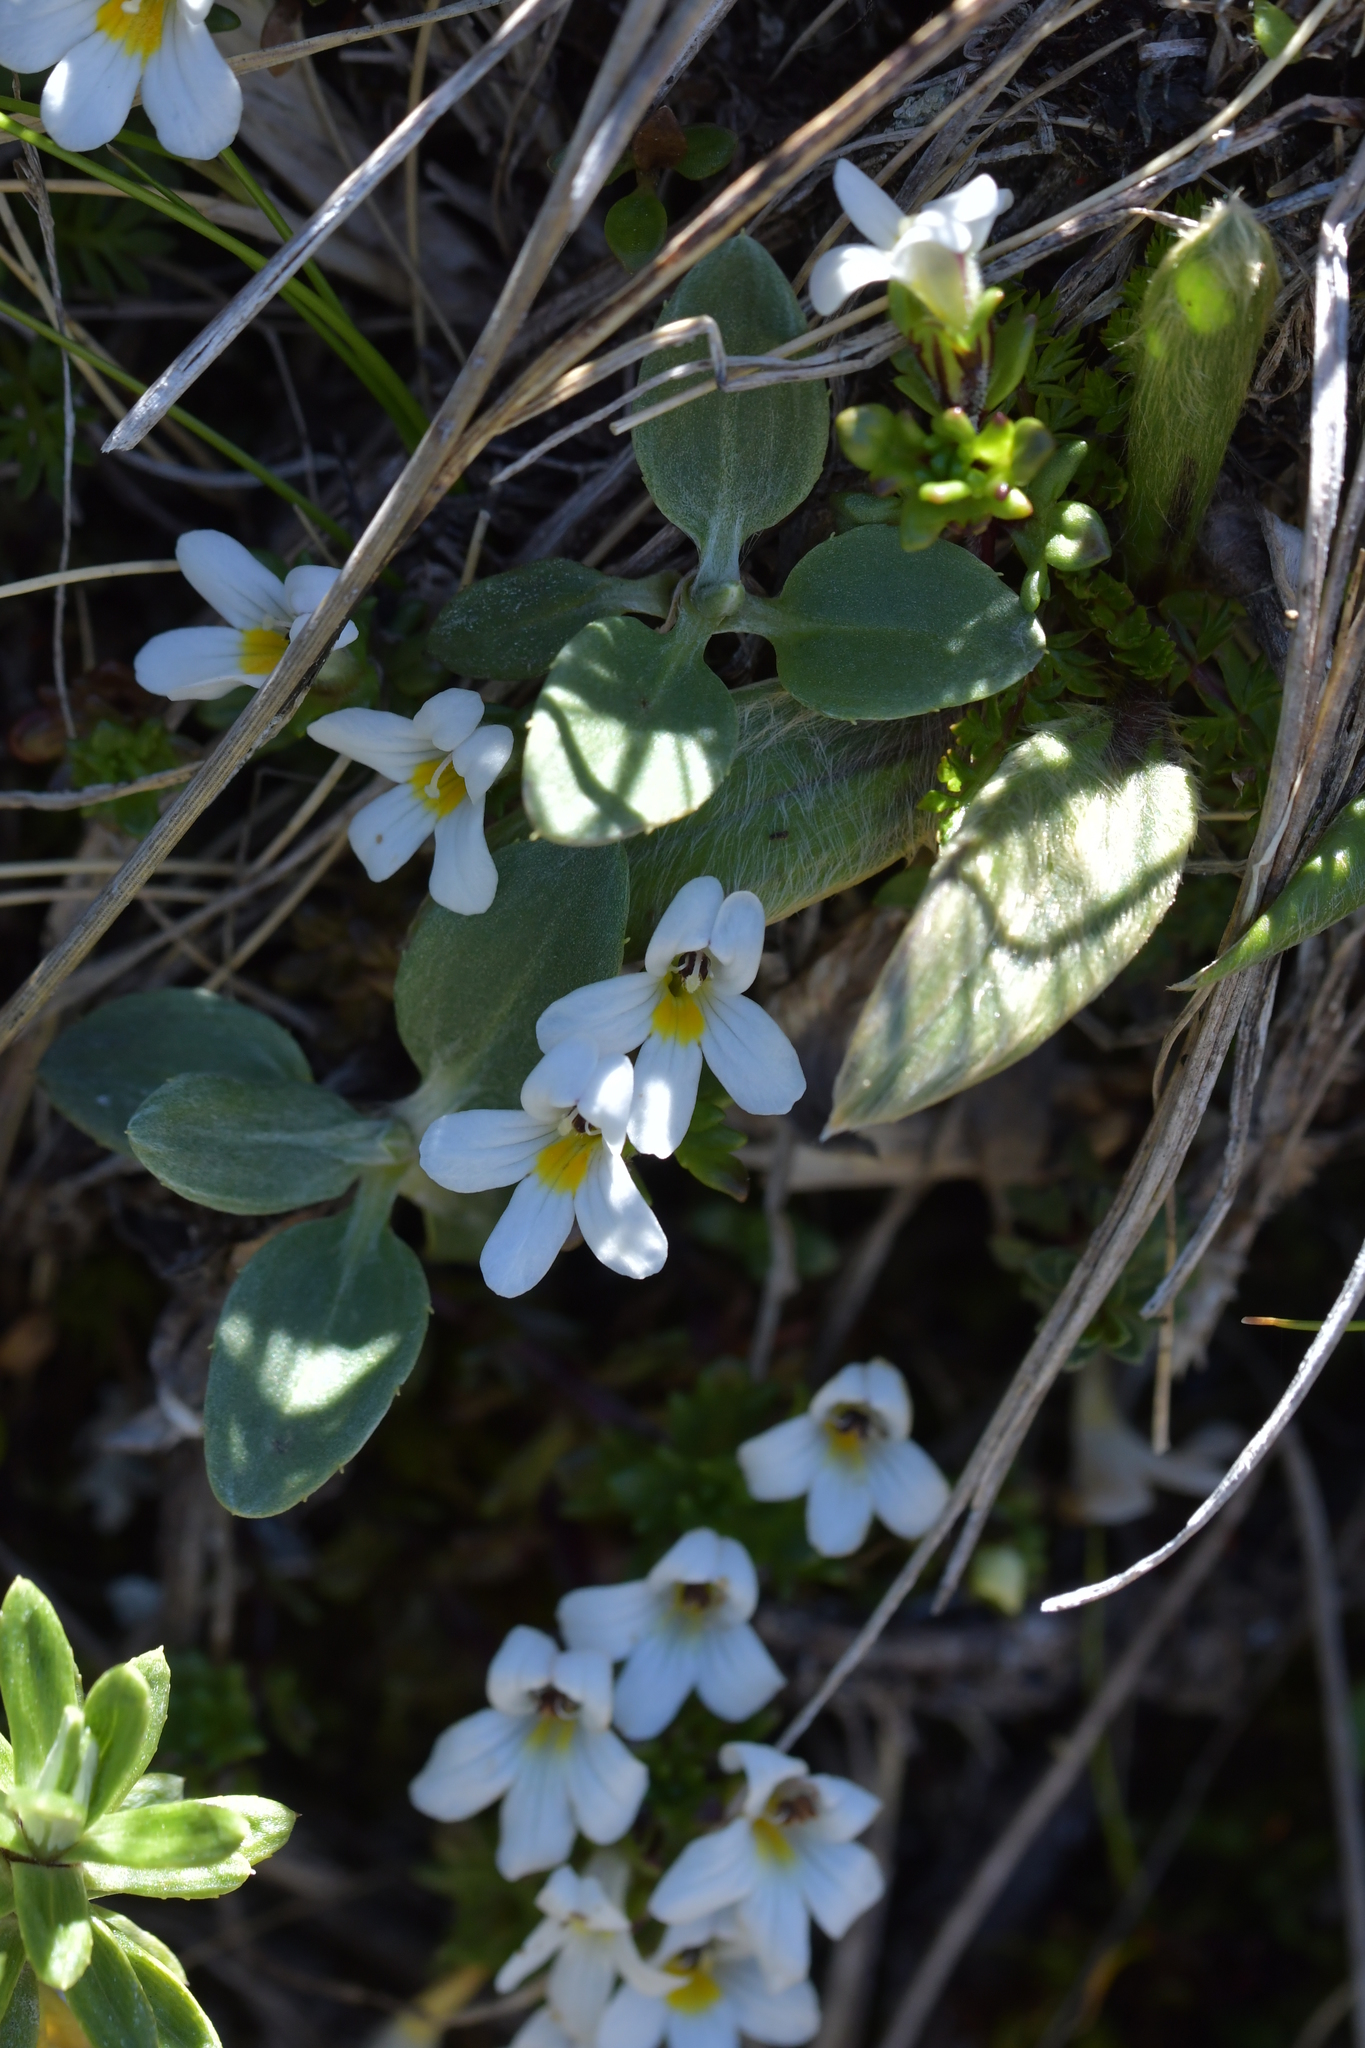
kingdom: Plantae
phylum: Tracheophyta
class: Magnoliopsida
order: Lamiales
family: Orobanchaceae
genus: Euphrasia
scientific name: Euphrasia revoluta
